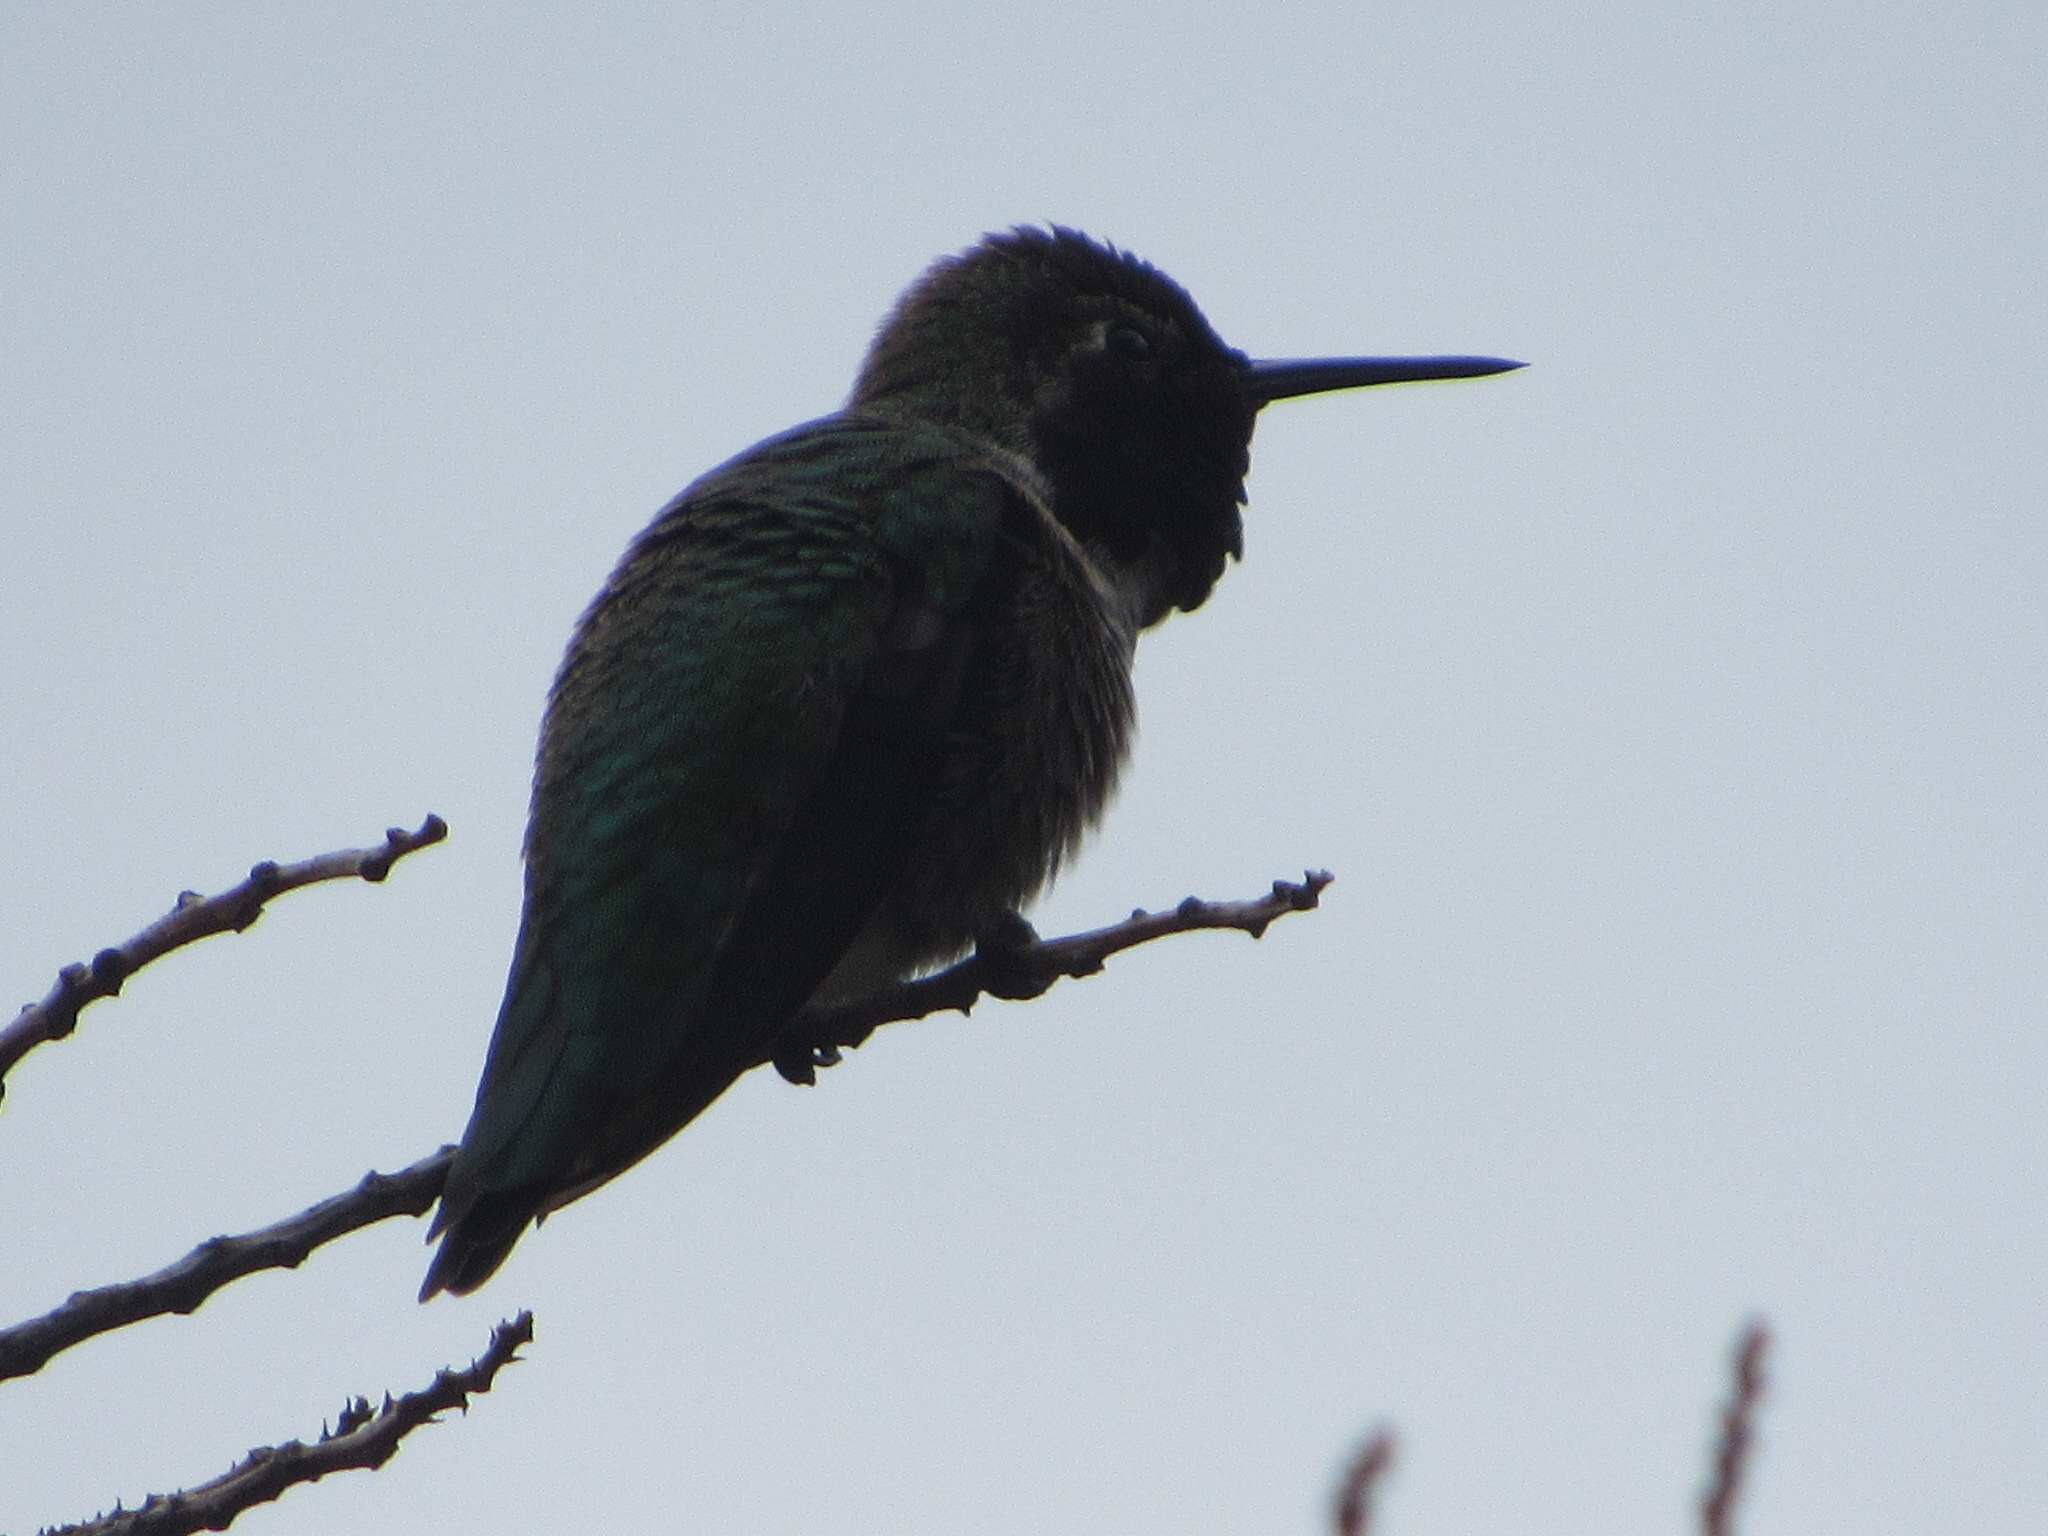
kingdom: Animalia
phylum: Chordata
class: Aves
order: Apodiformes
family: Trochilidae
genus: Calypte
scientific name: Calypte anna
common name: Anna's hummingbird
